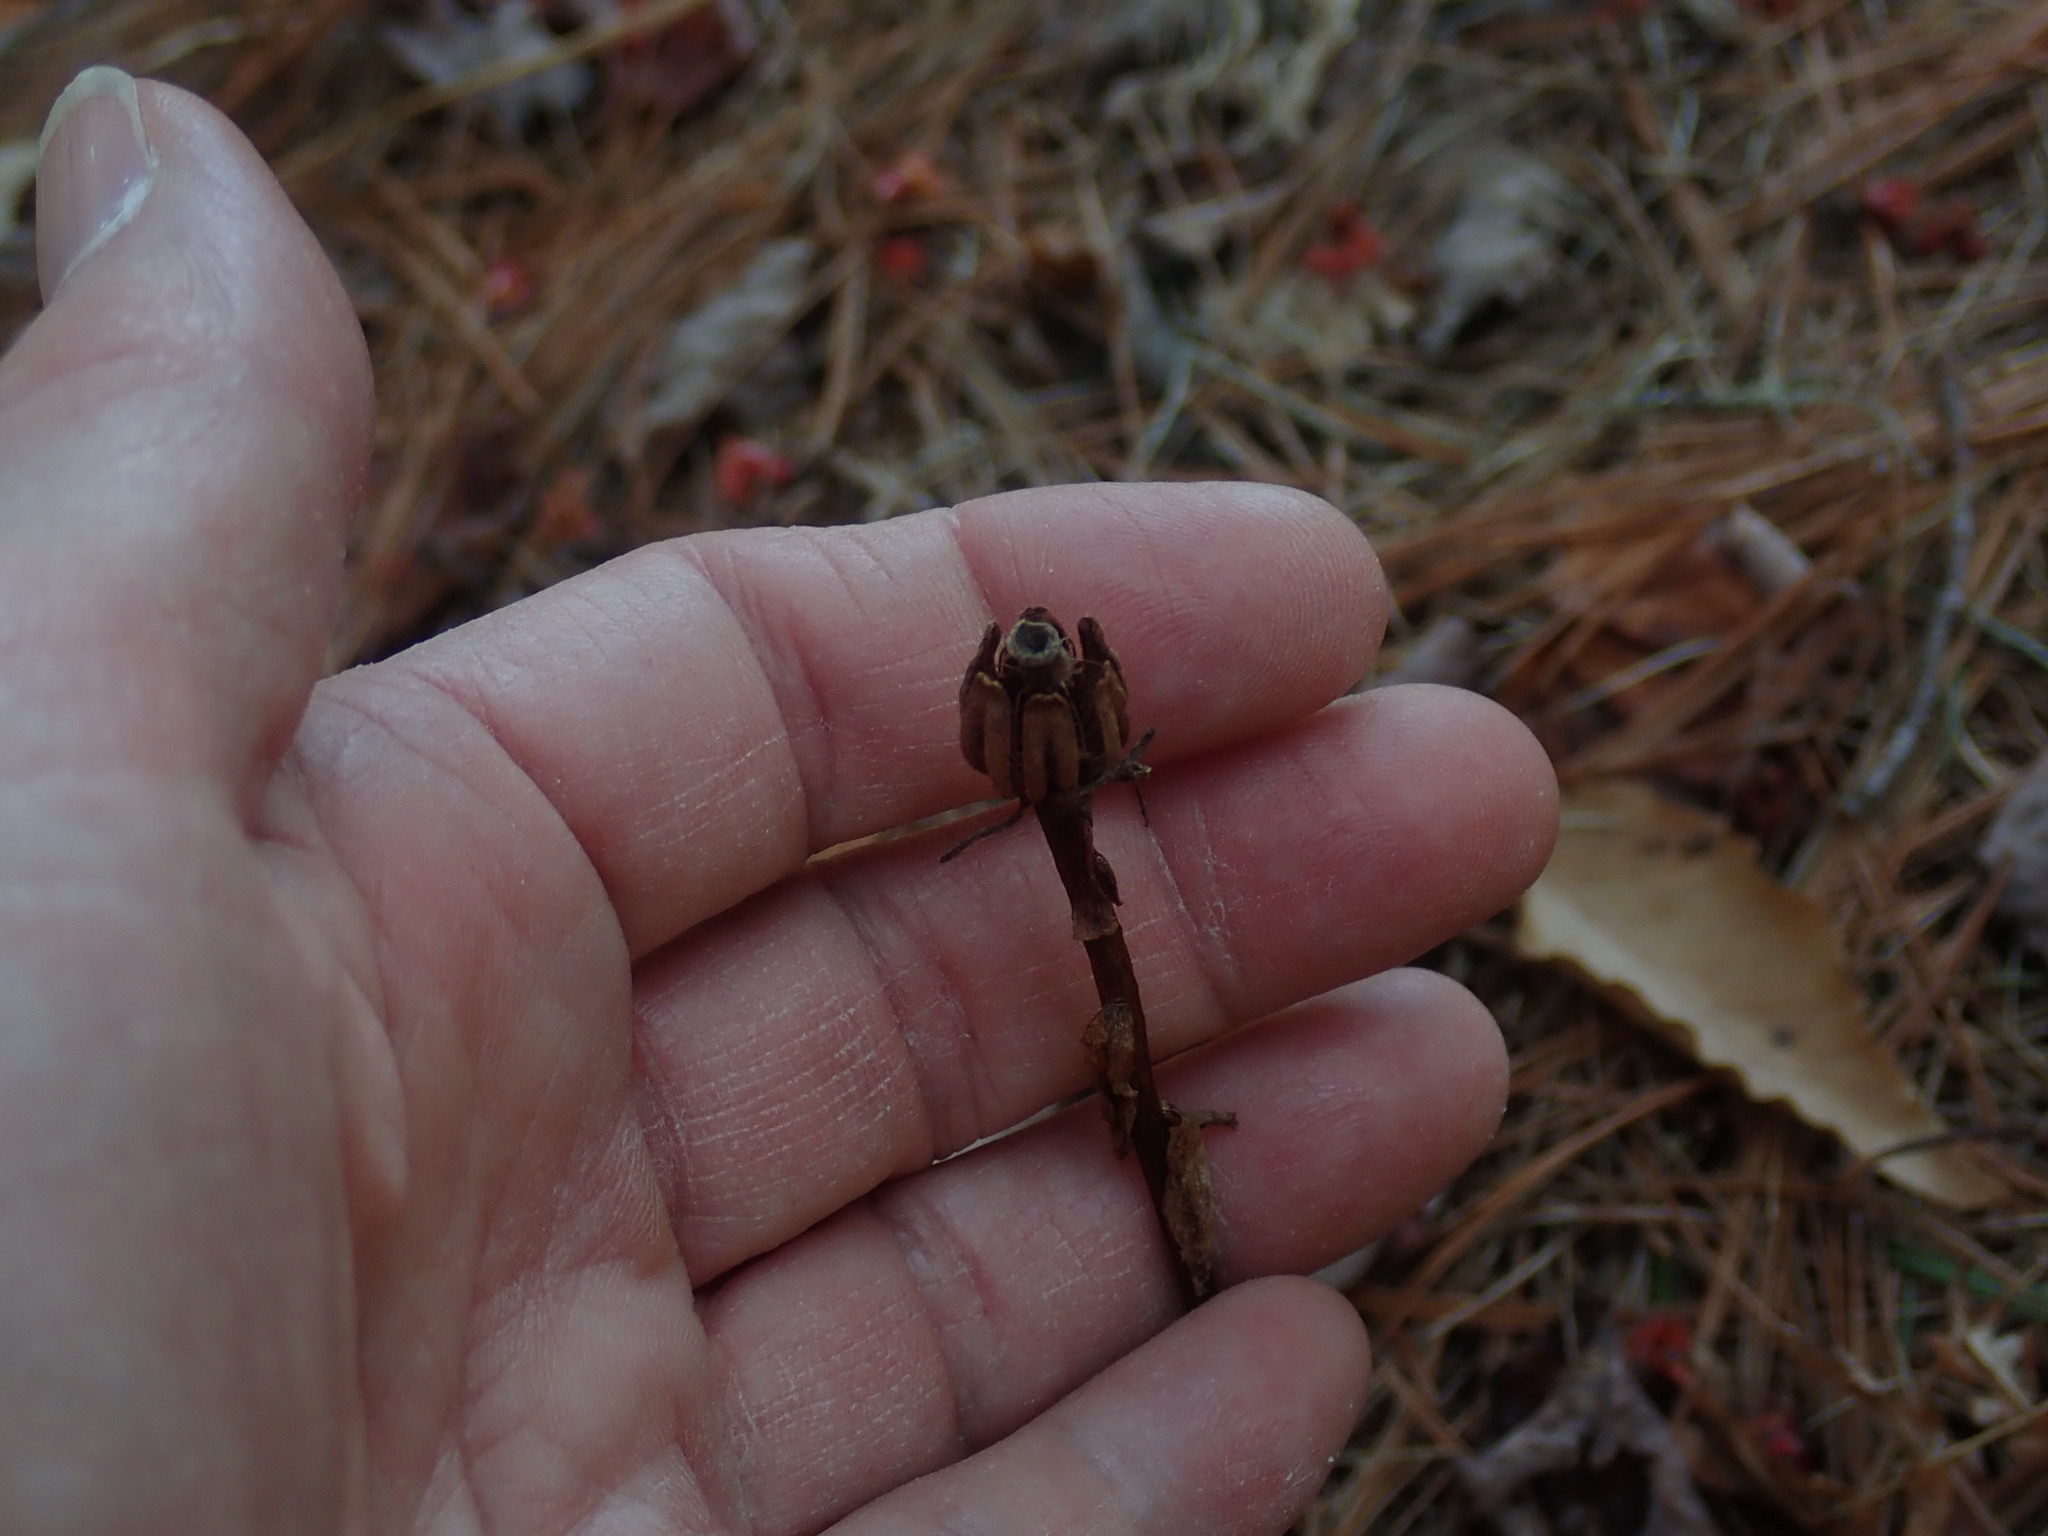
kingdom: Plantae
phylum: Tracheophyta
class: Magnoliopsida
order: Ericales
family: Ericaceae
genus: Monotropa
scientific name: Monotropa uniflora
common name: Convulsion root
